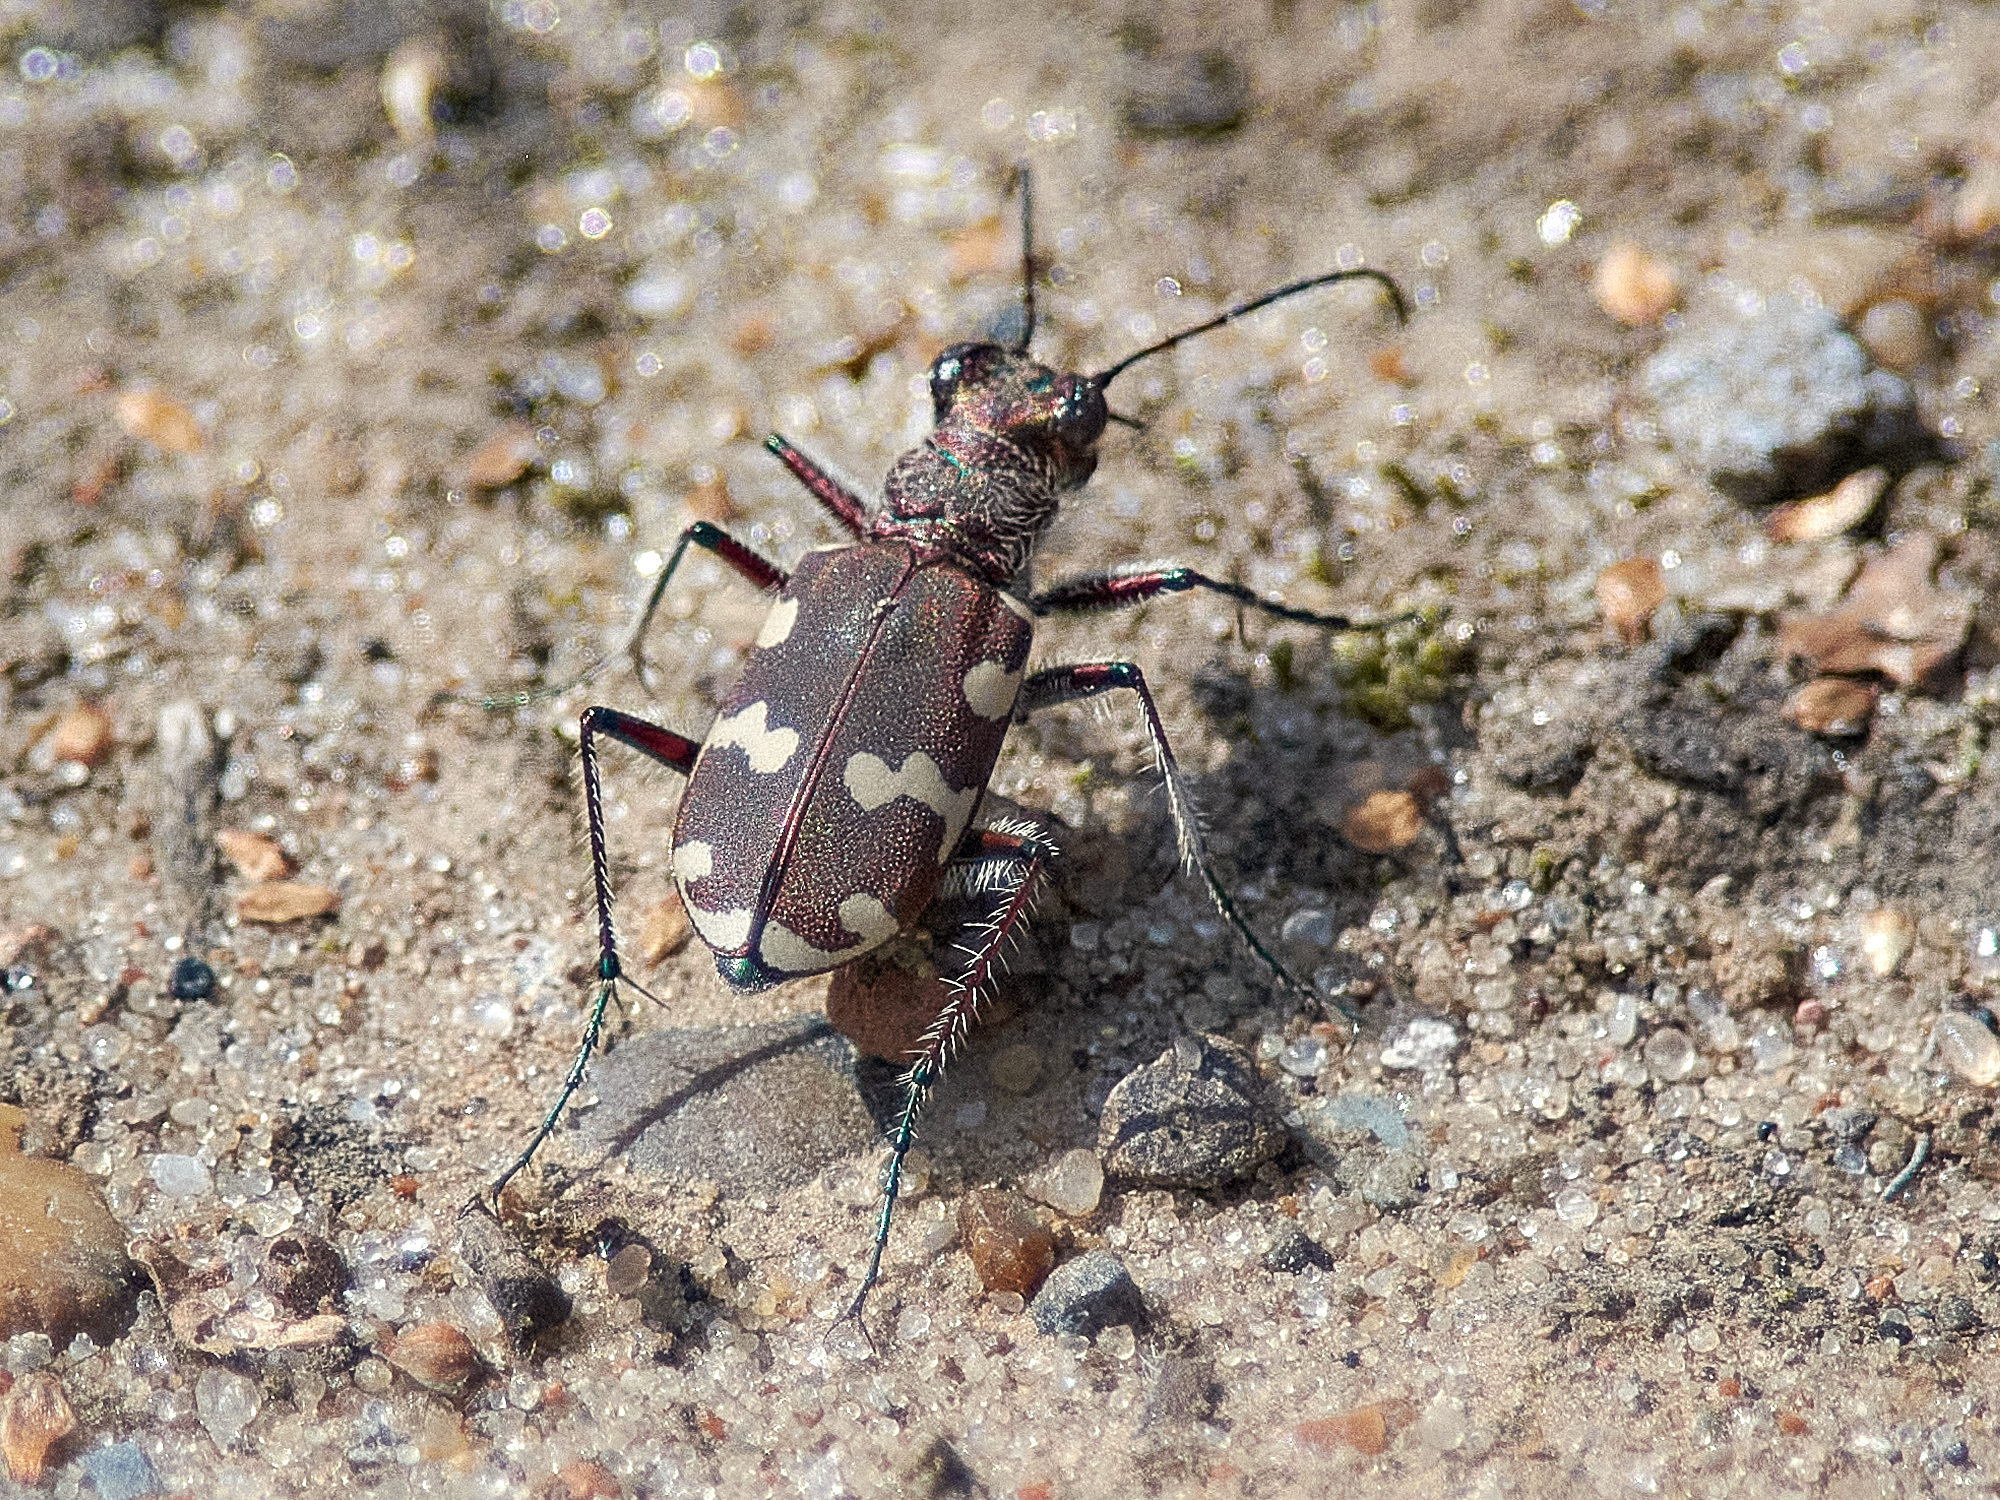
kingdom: Animalia
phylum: Arthropoda
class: Insecta
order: Coleoptera
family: Carabidae
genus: Cicindela
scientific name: Cicindela hybrida
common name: Northern dune tiger beetle
